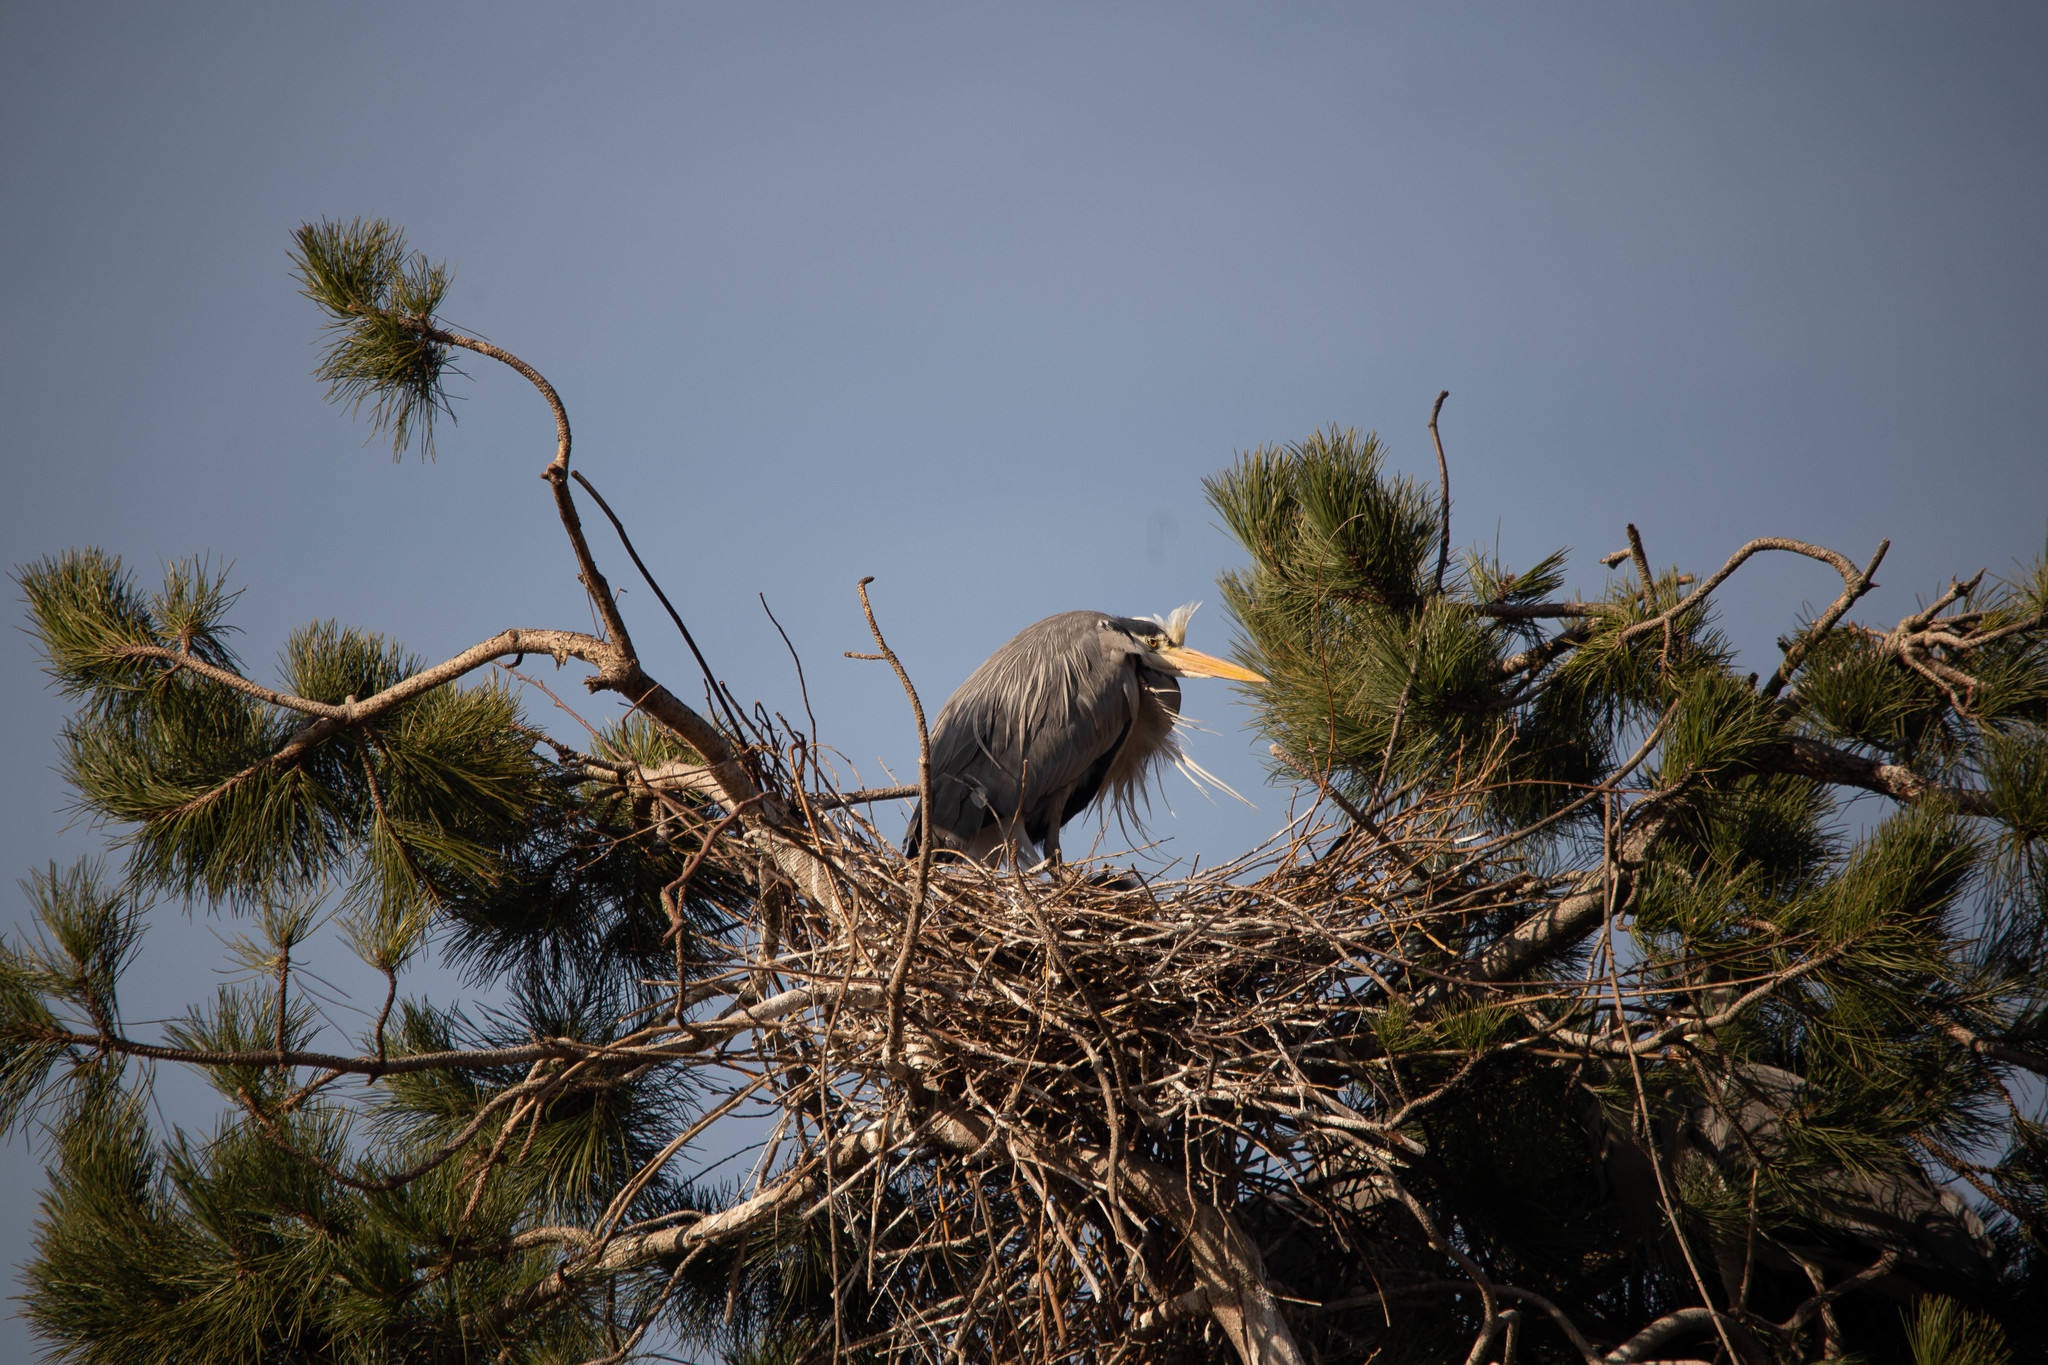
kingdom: Animalia
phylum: Chordata
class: Aves
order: Pelecaniformes
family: Ardeidae
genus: Ardea
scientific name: Ardea cinerea
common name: Grey heron
